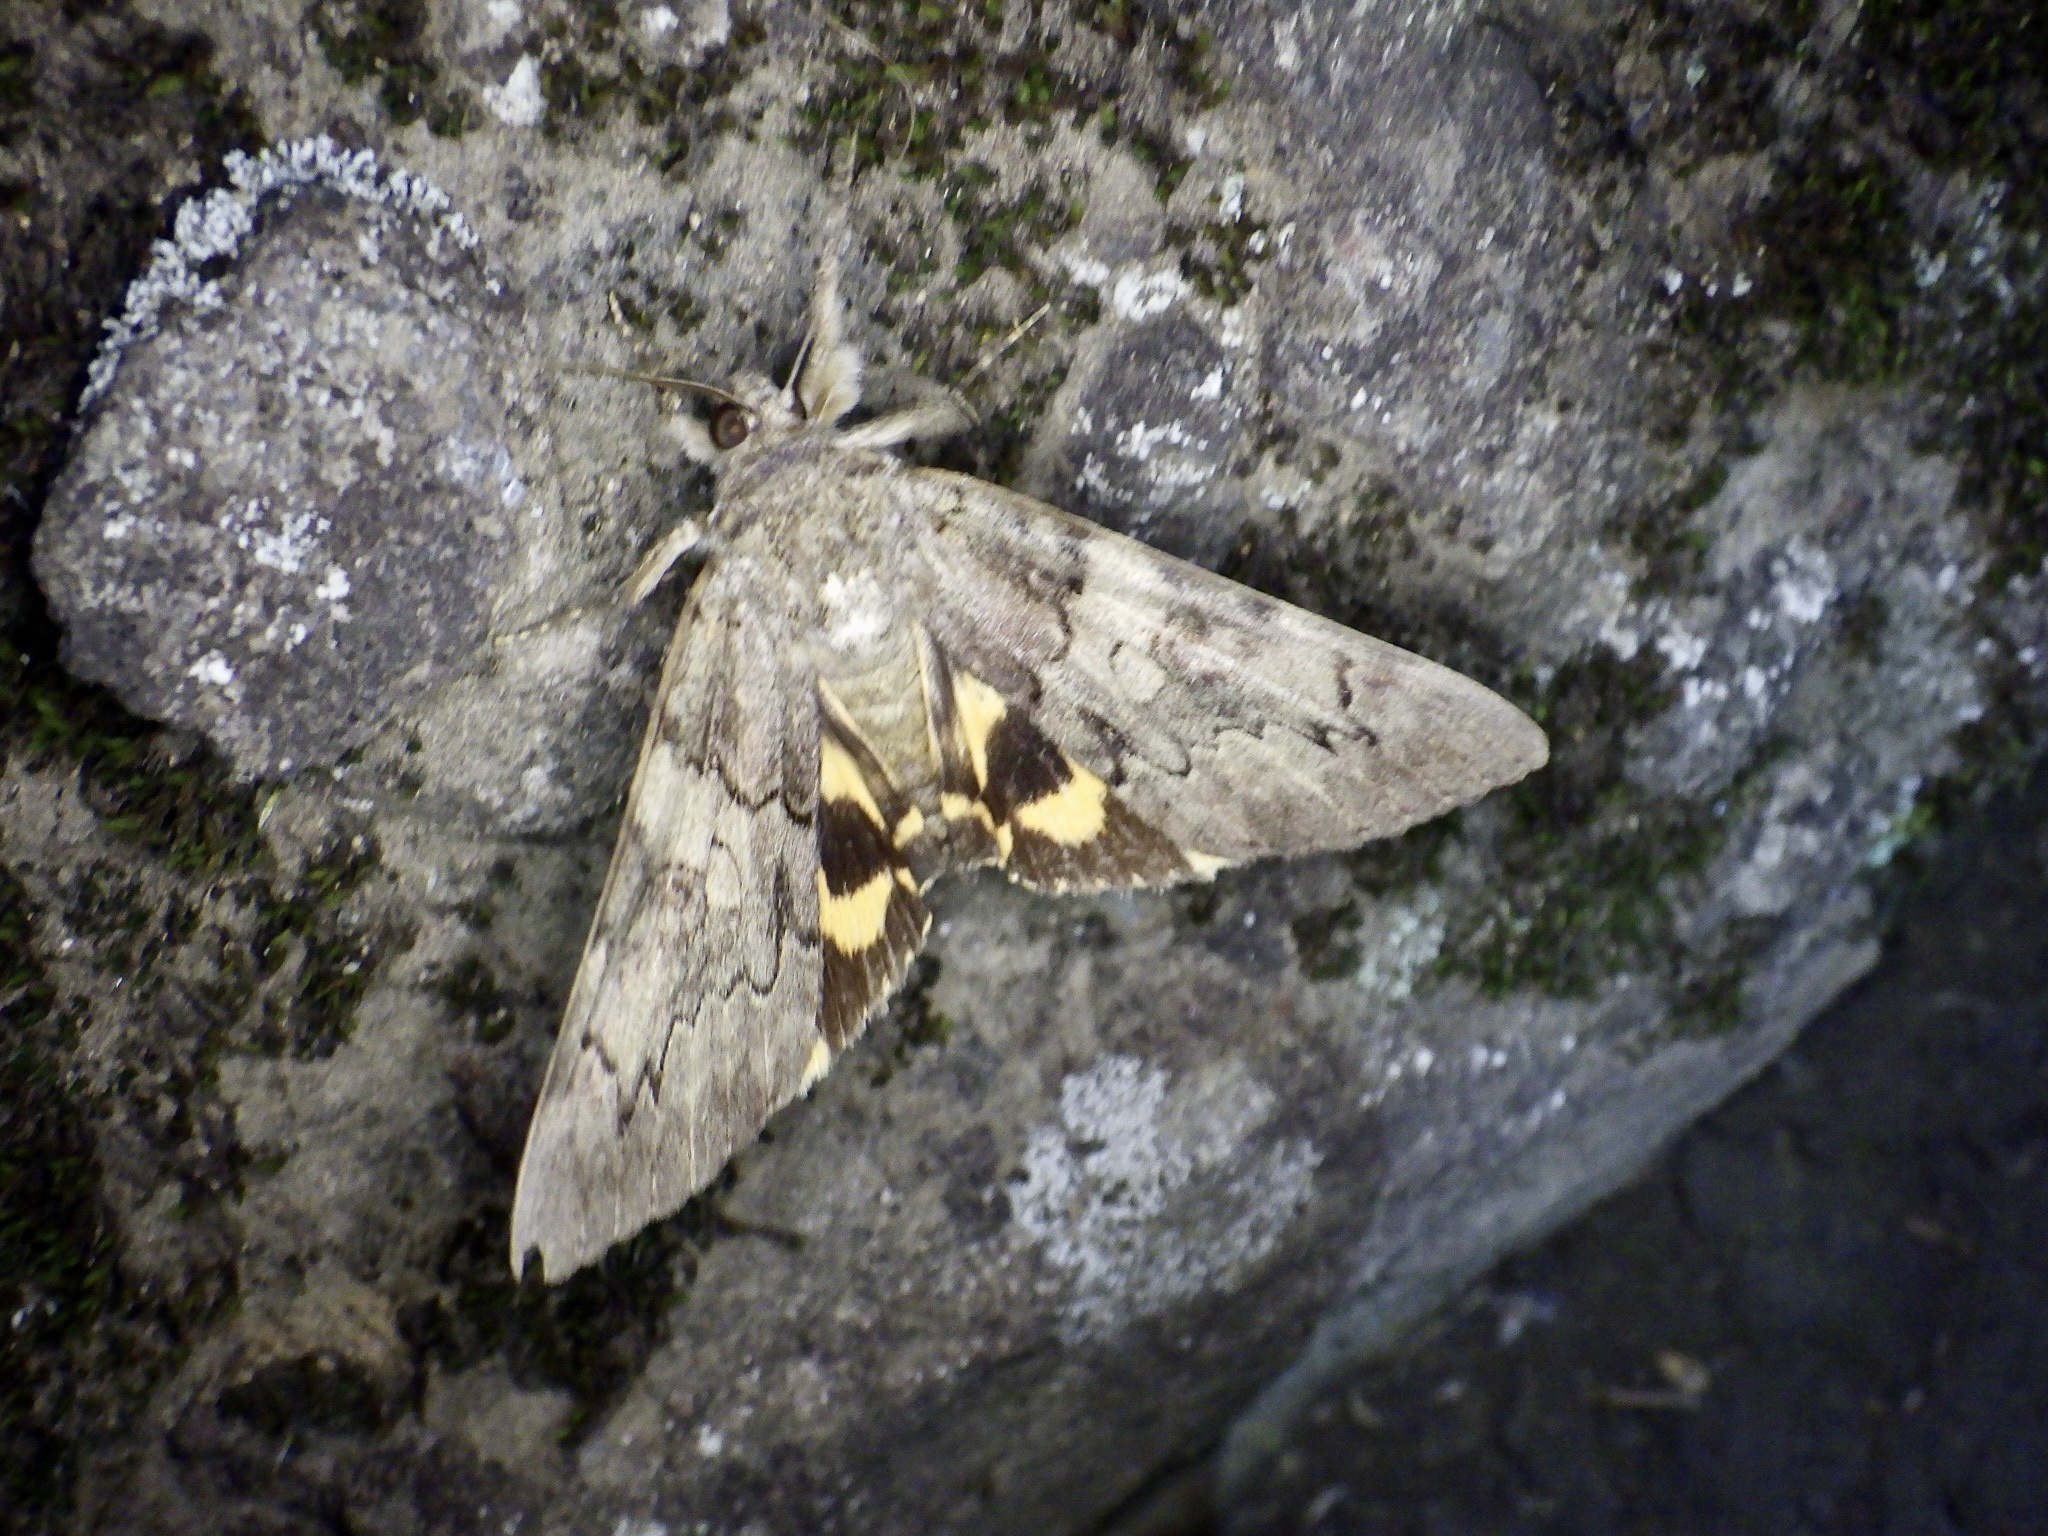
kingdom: Animalia
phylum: Arthropoda
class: Insecta
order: Lepidoptera
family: Erebidae
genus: Catocala
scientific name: Catocala patala
